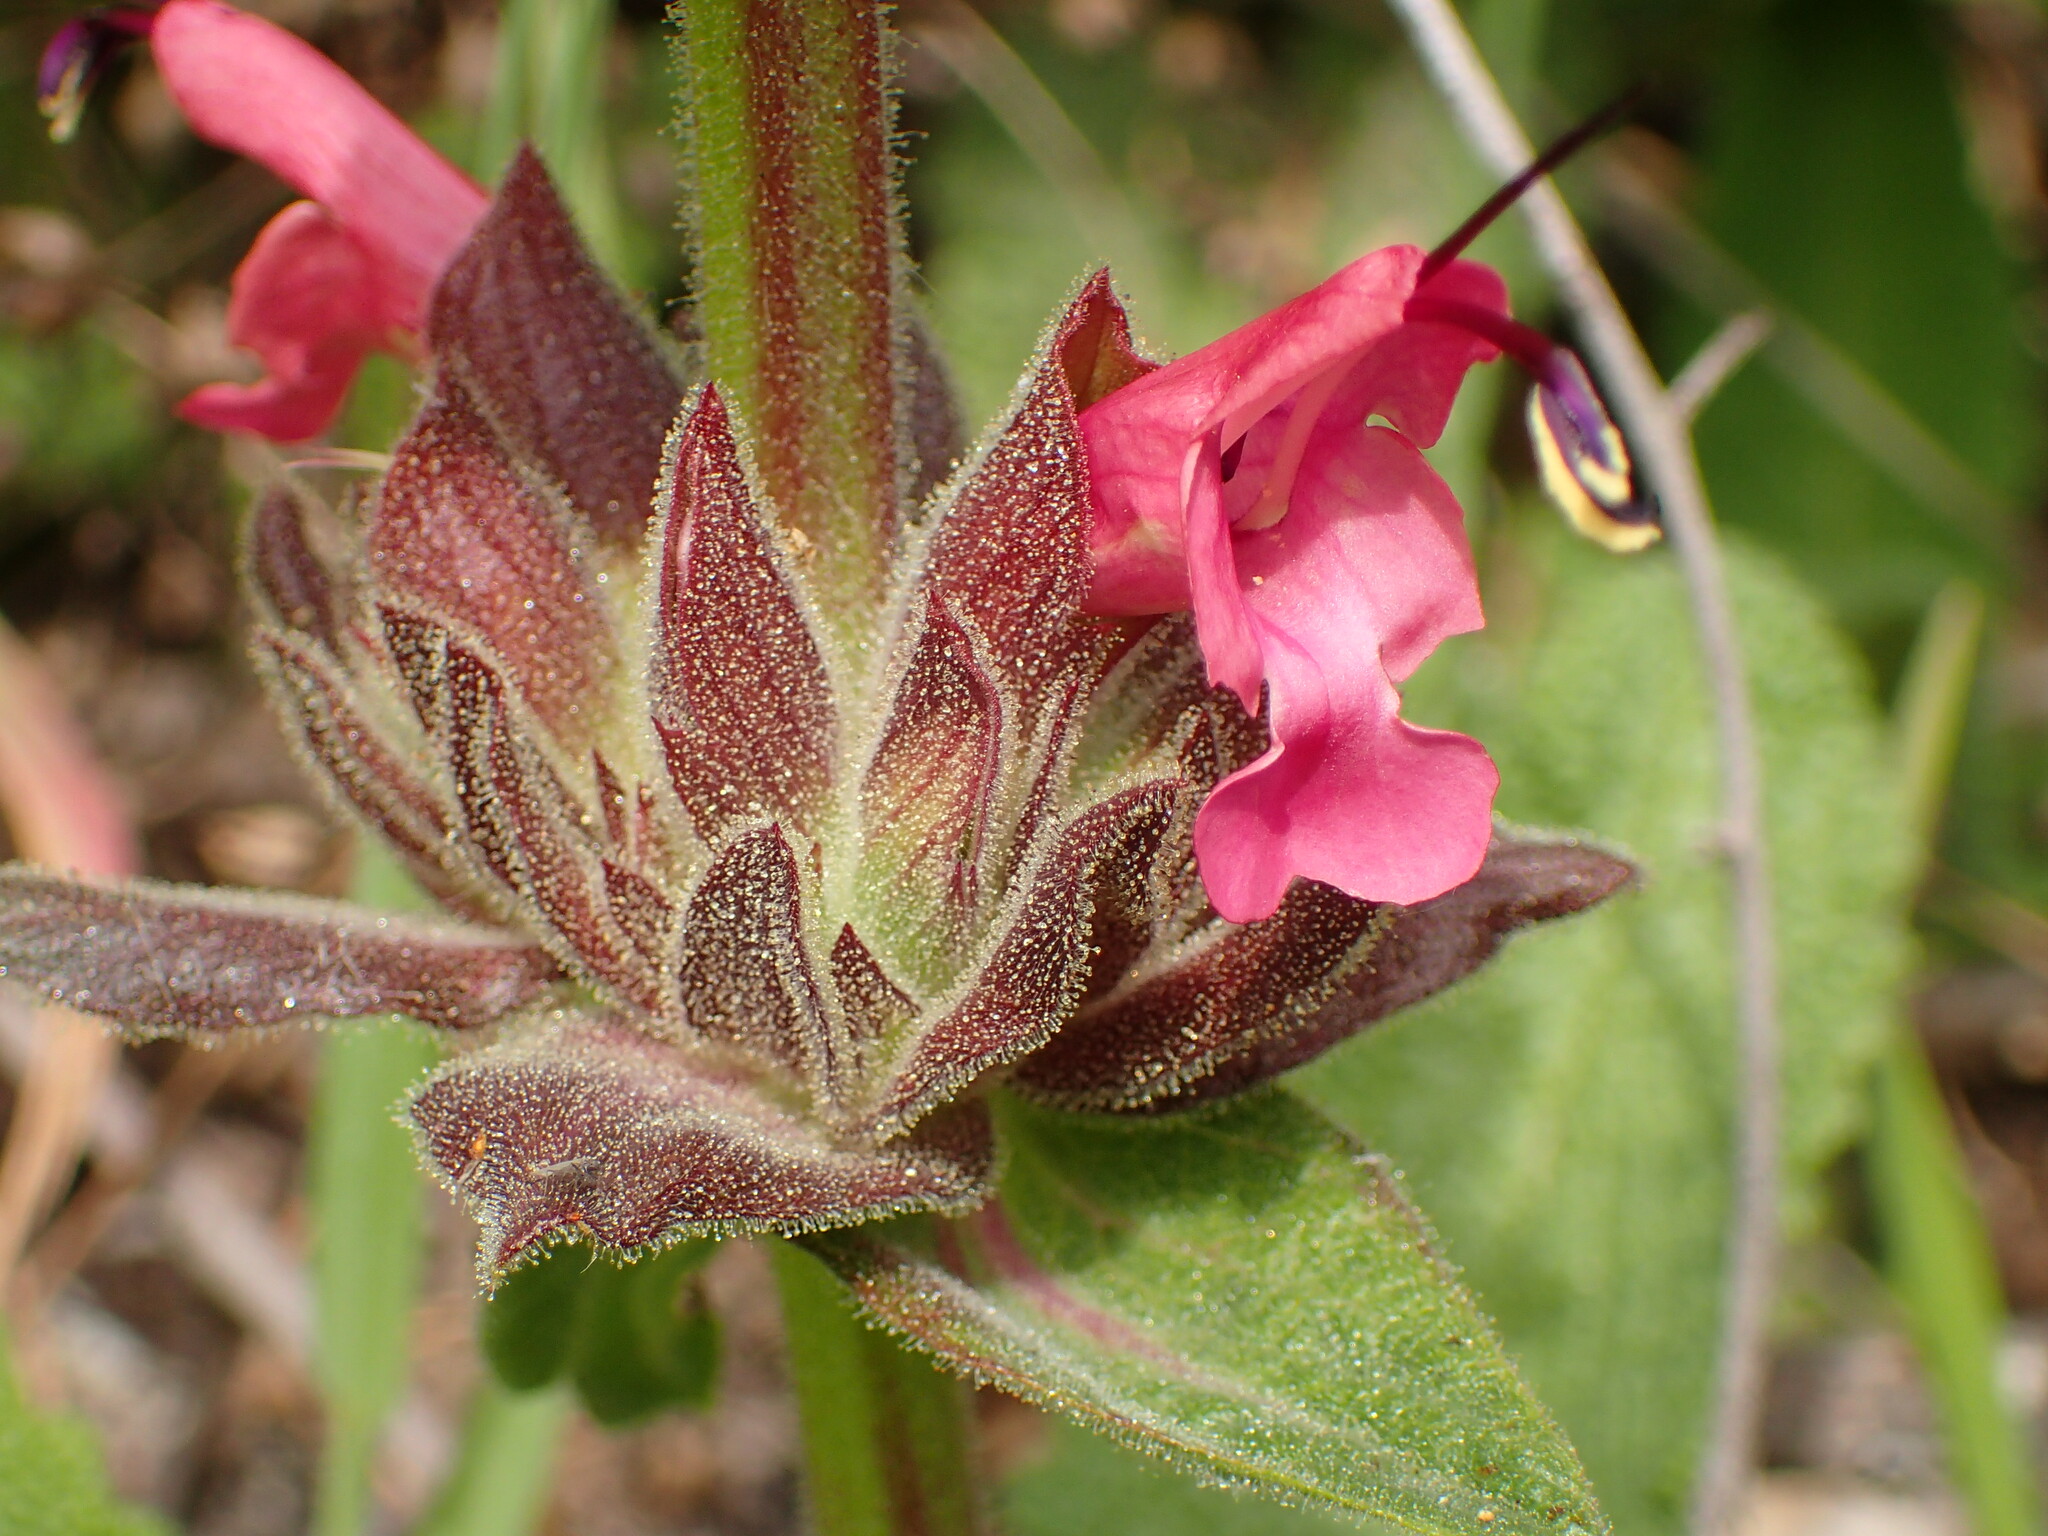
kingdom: Plantae
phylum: Tracheophyta
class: Magnoliopsida
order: Lamiales
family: Lamiaceae
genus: Salvia
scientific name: Salvia spathacea
